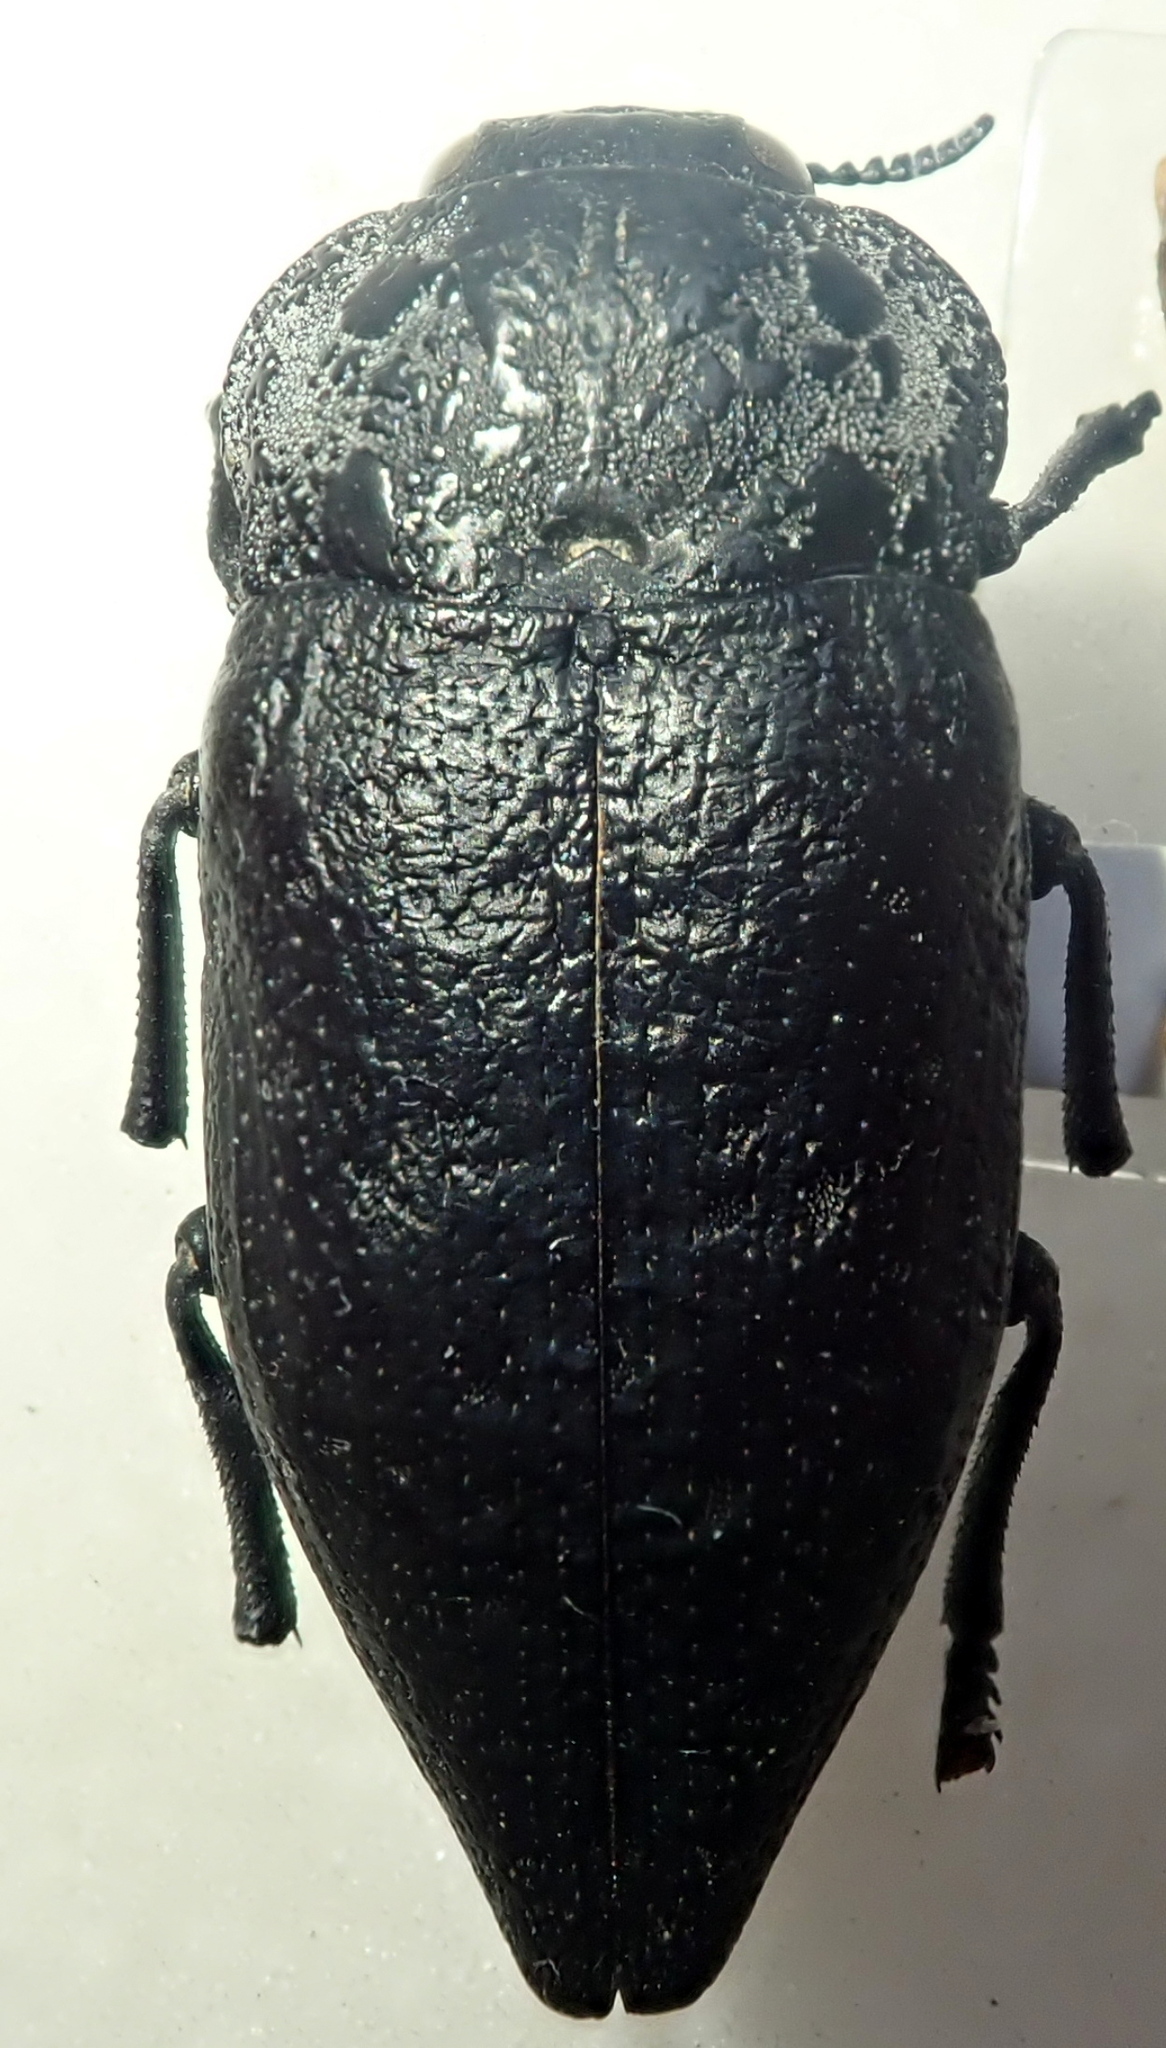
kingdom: Animalia
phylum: Arthropoda
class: Insecta
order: Coleoptera
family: Buprestidae
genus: Capnodis
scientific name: Capnodis tenebrionis
